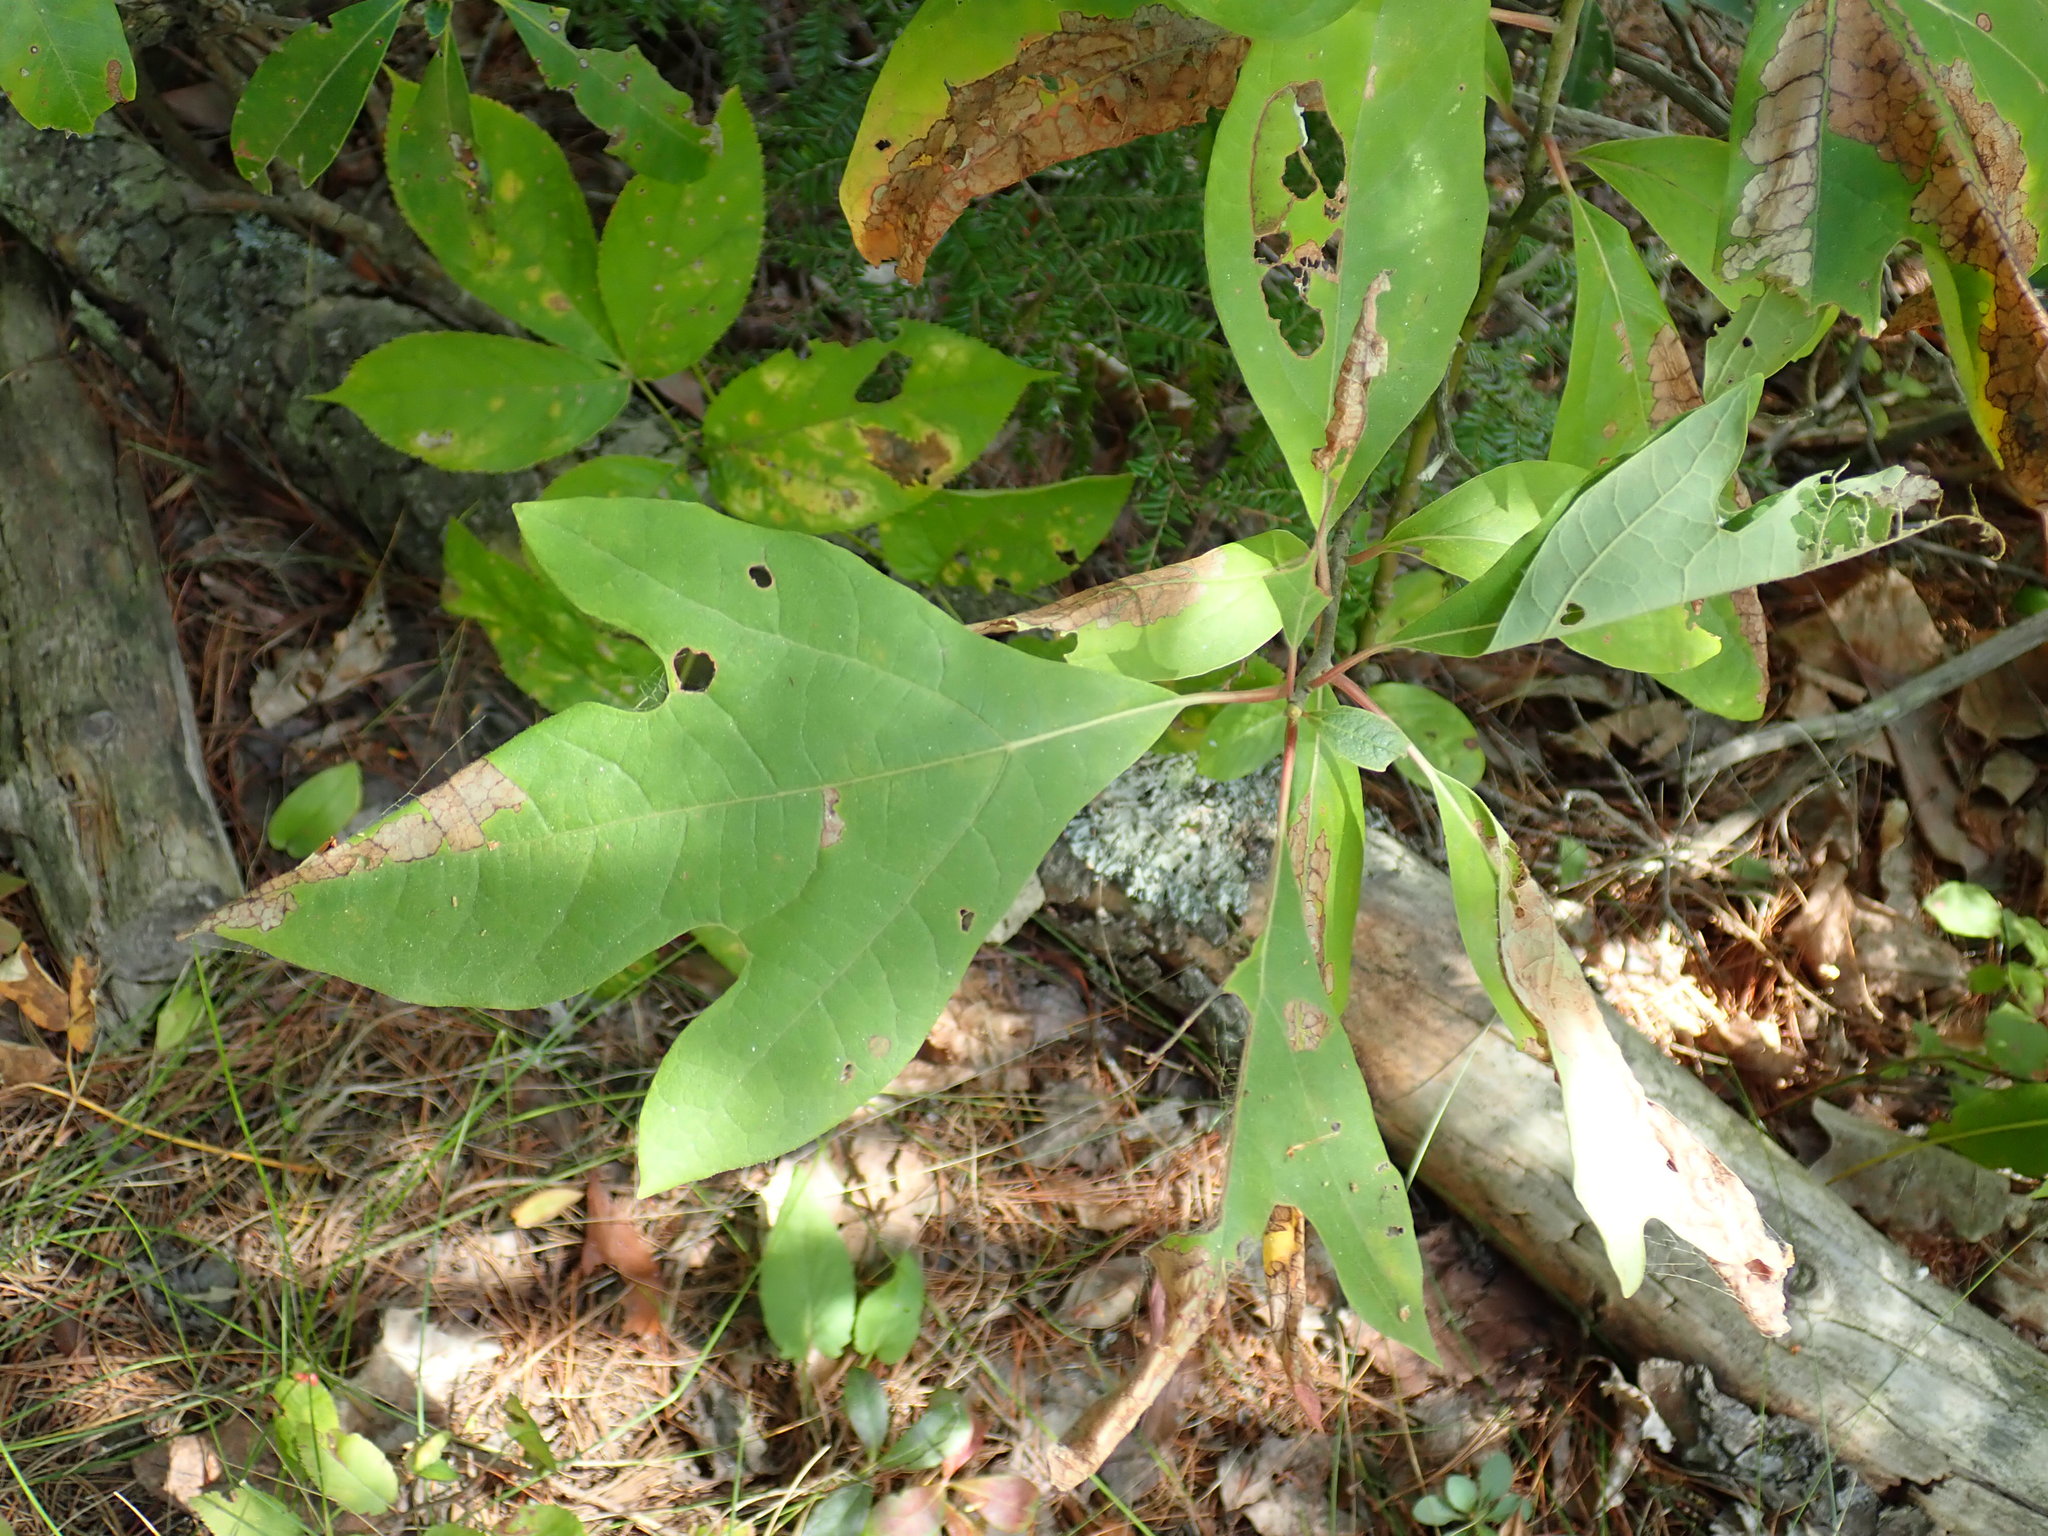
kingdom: Plantae
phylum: Tracheophyta
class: Magnoliopsida
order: Laurales
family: Lauraceae
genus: Sassafras
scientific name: Sassafras albidum
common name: Sassafras
